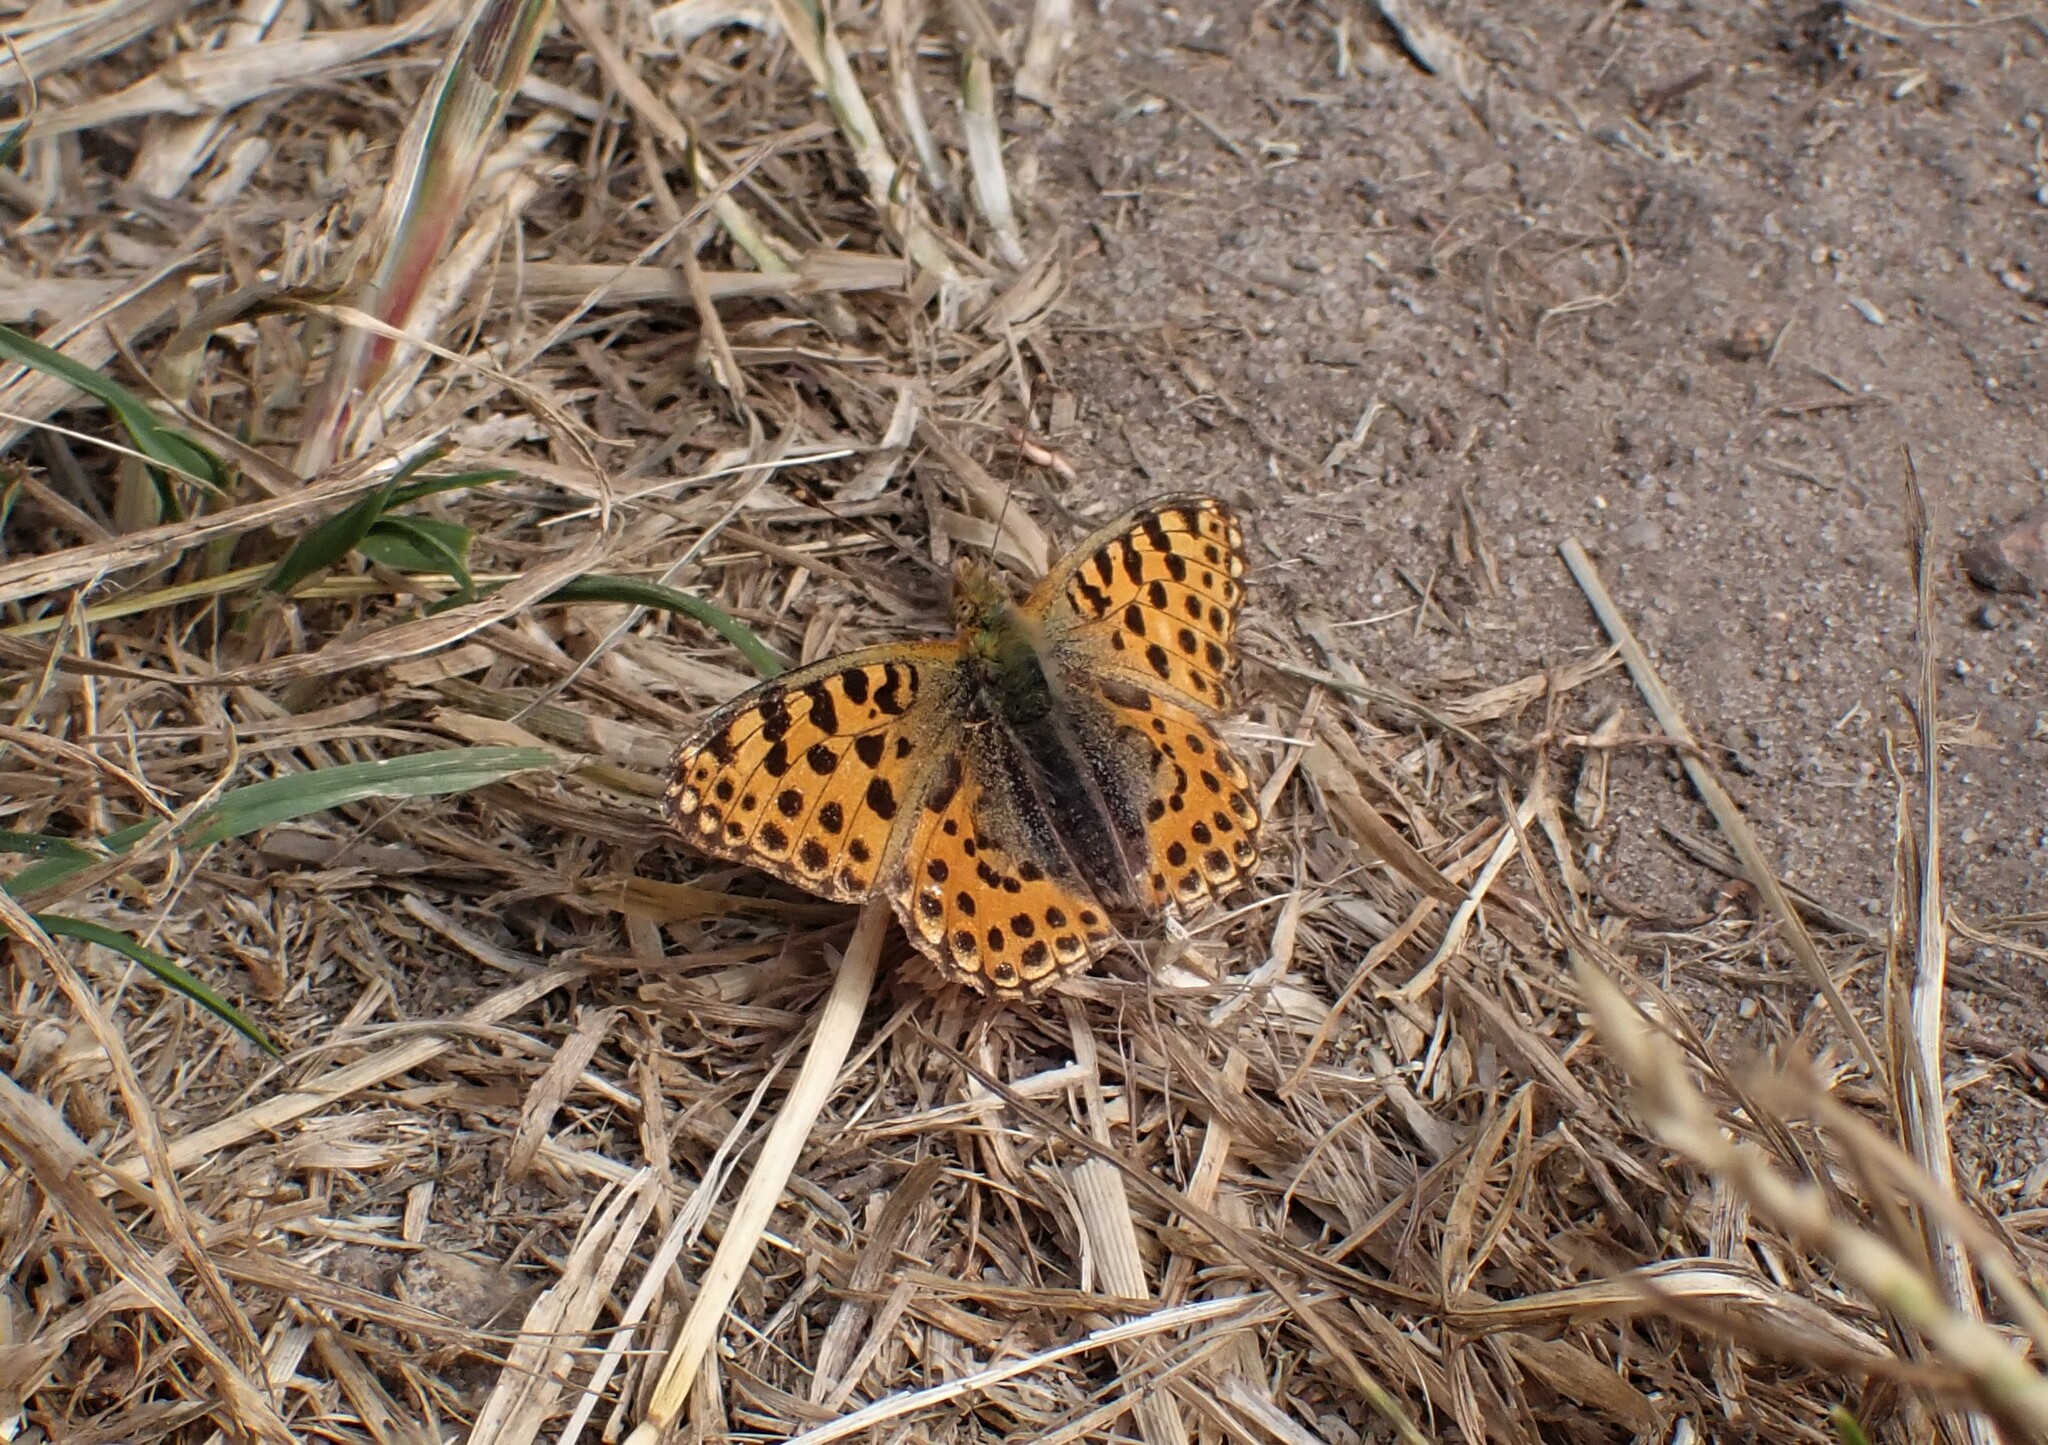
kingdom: Animalia
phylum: Arthropoda
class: Insecta
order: Lepidoptera
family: Nymphalidae
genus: Issoria
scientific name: Issoria lathonia
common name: Queen of spain fritillary
